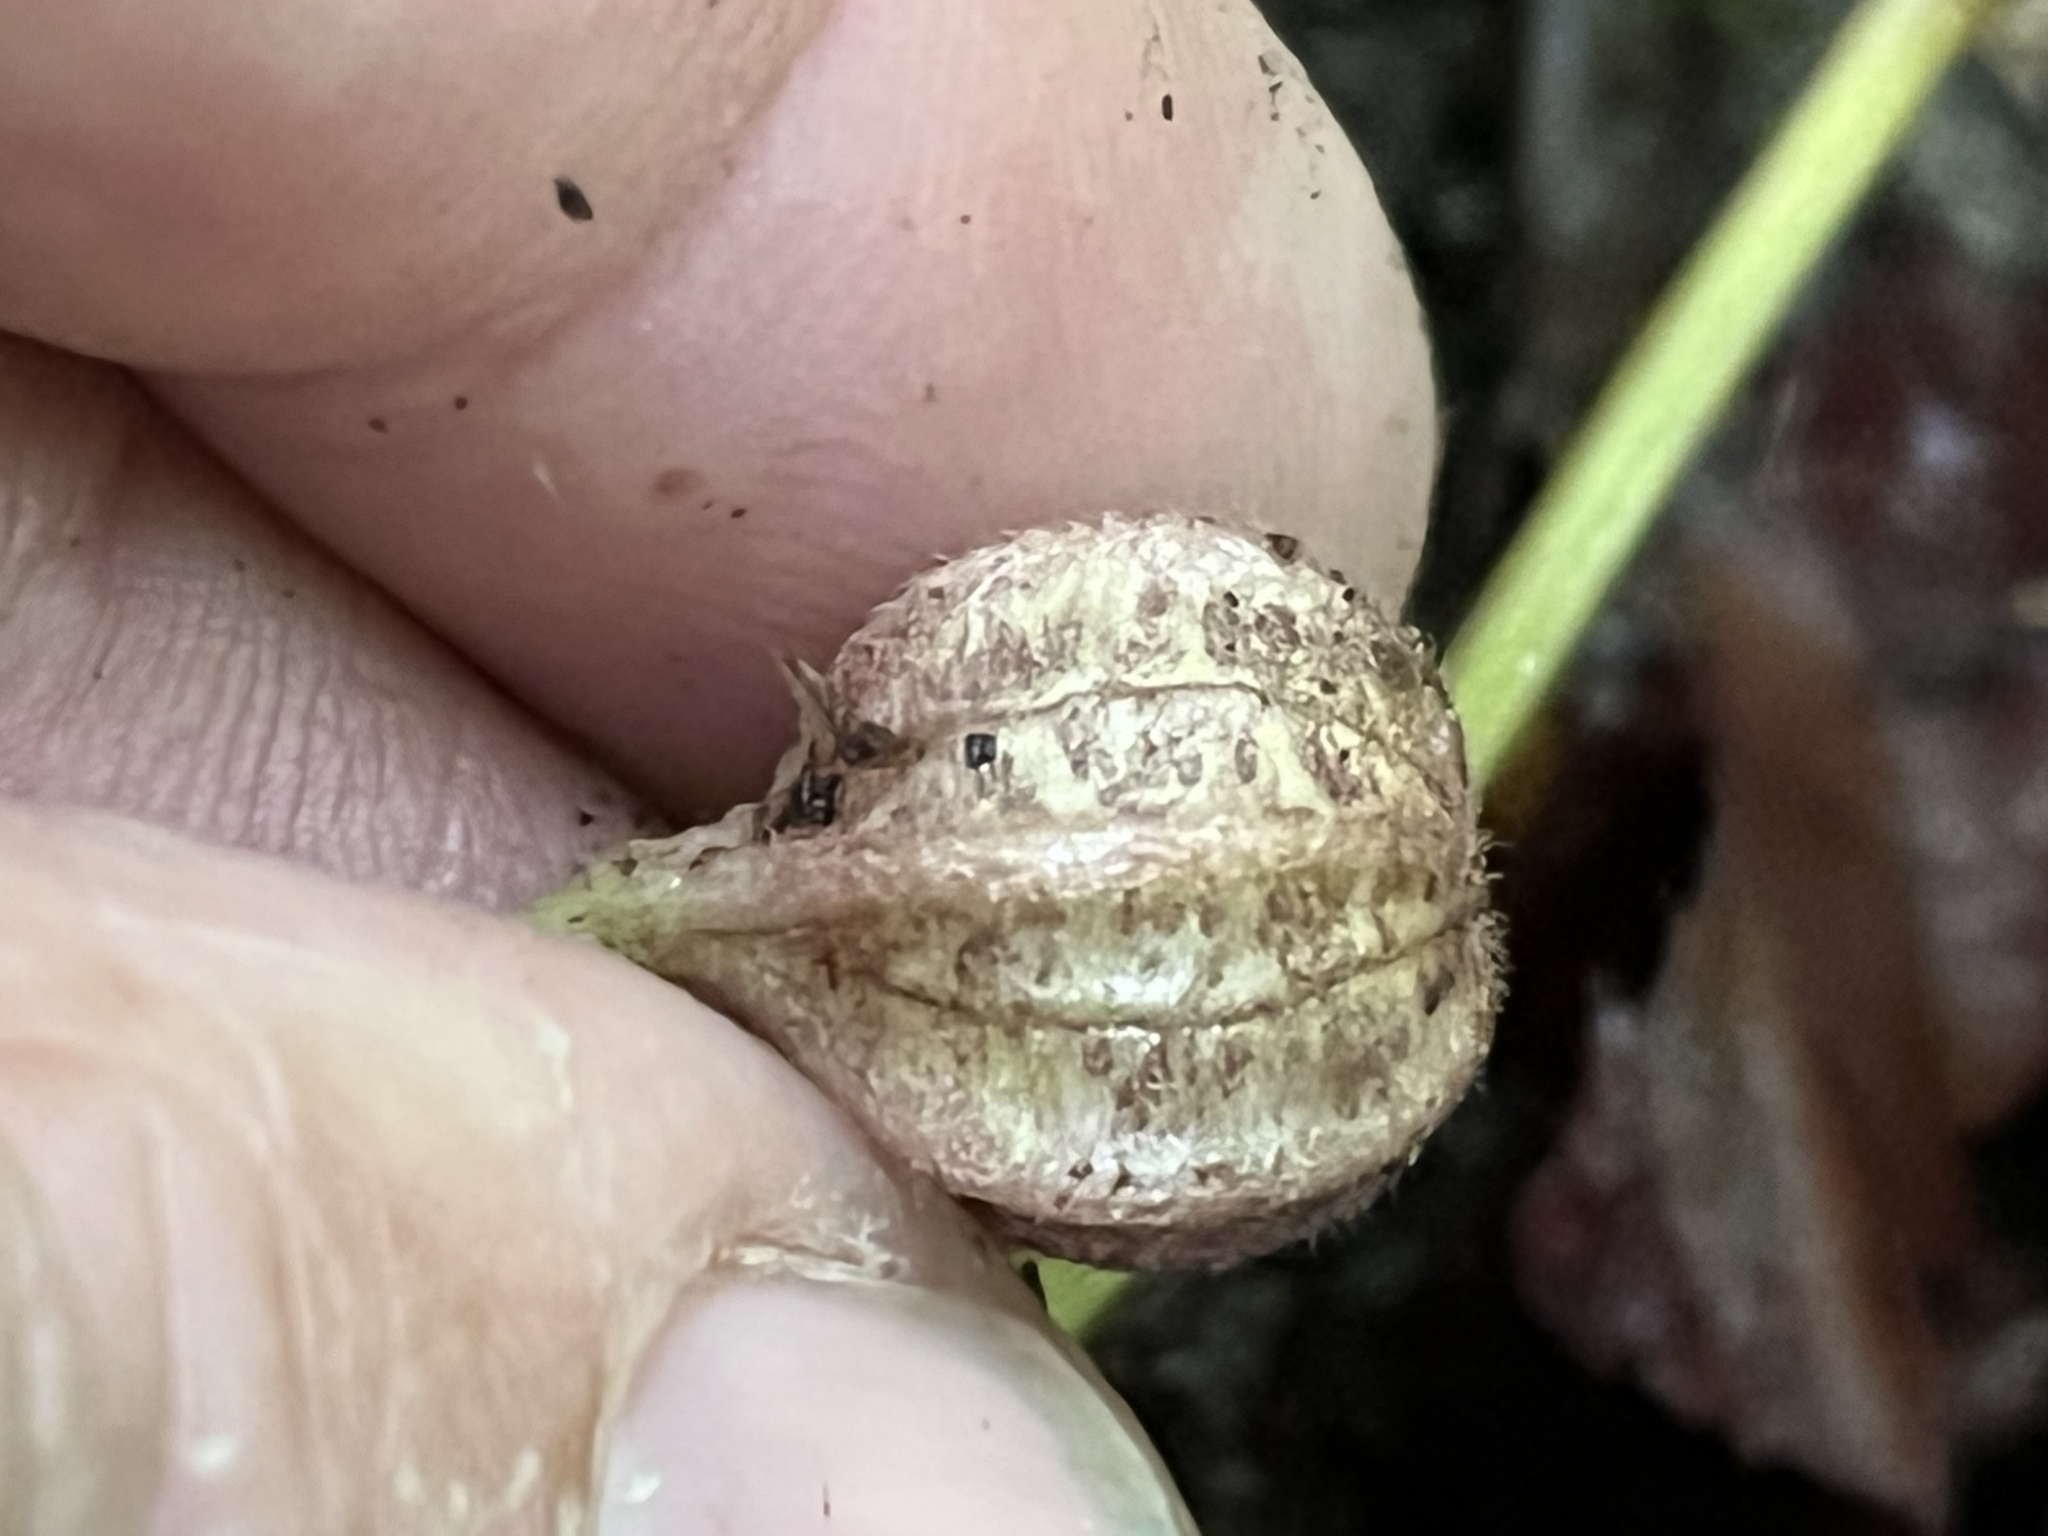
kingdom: Plantae
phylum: Tracheophyta
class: Magnoliopsida
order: Piperales
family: Aristolochiaceae
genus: Endodeca
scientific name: Endodeca serpentaria
